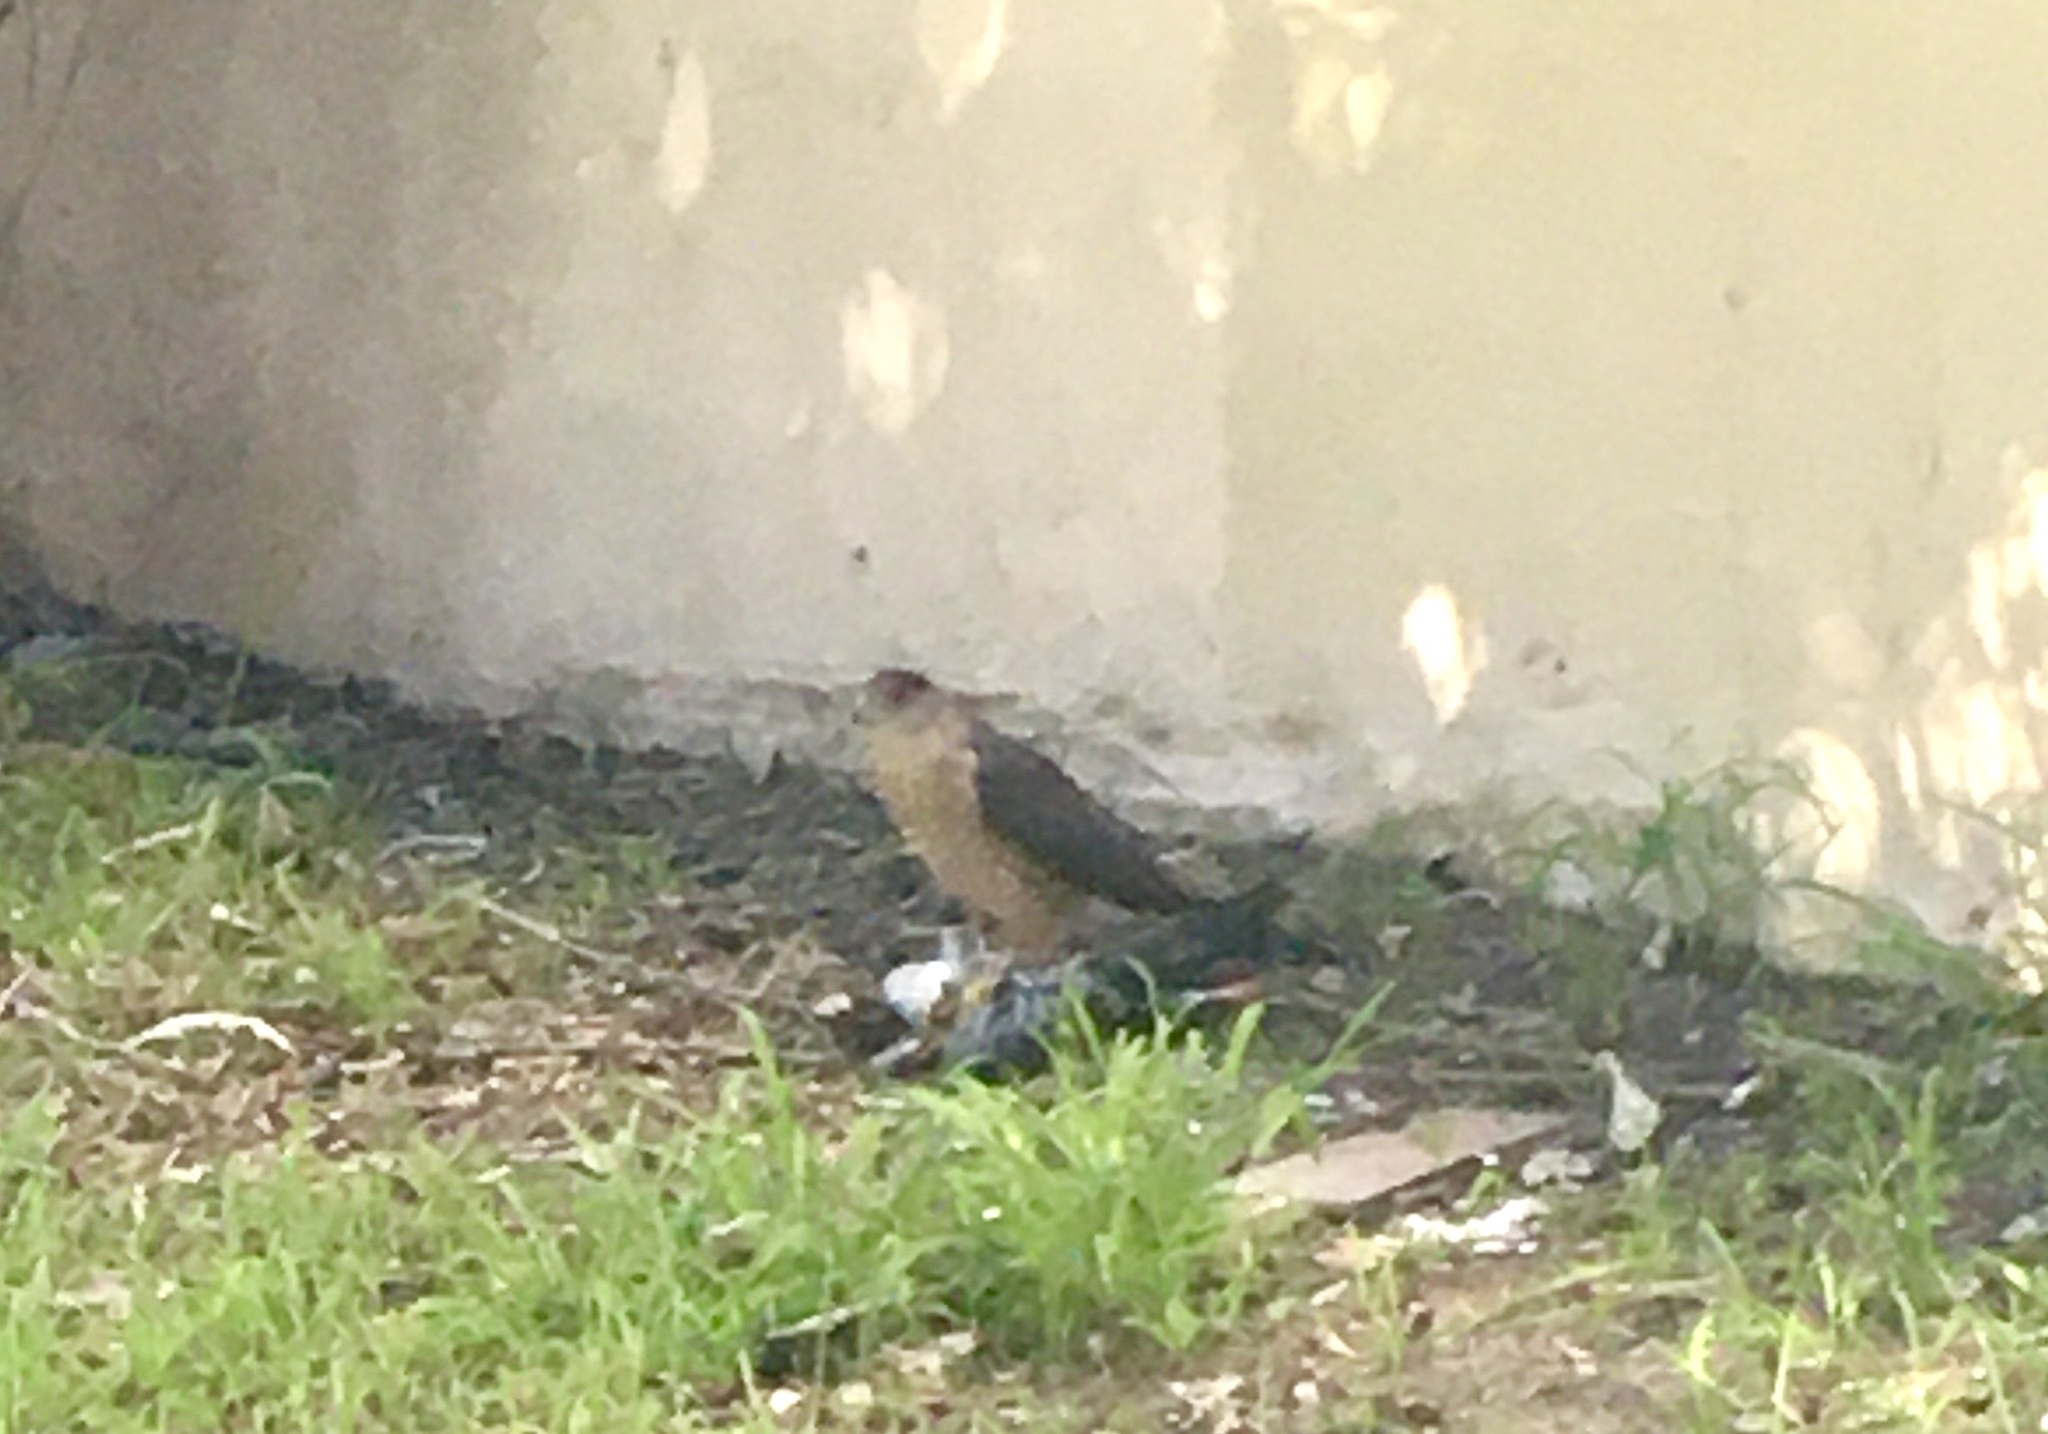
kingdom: Animalia
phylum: Chordata
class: Aves
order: Accipitriformes
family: Accipitridae
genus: Accipiter
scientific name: Accipiter cooperii
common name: Cooper's hawk
